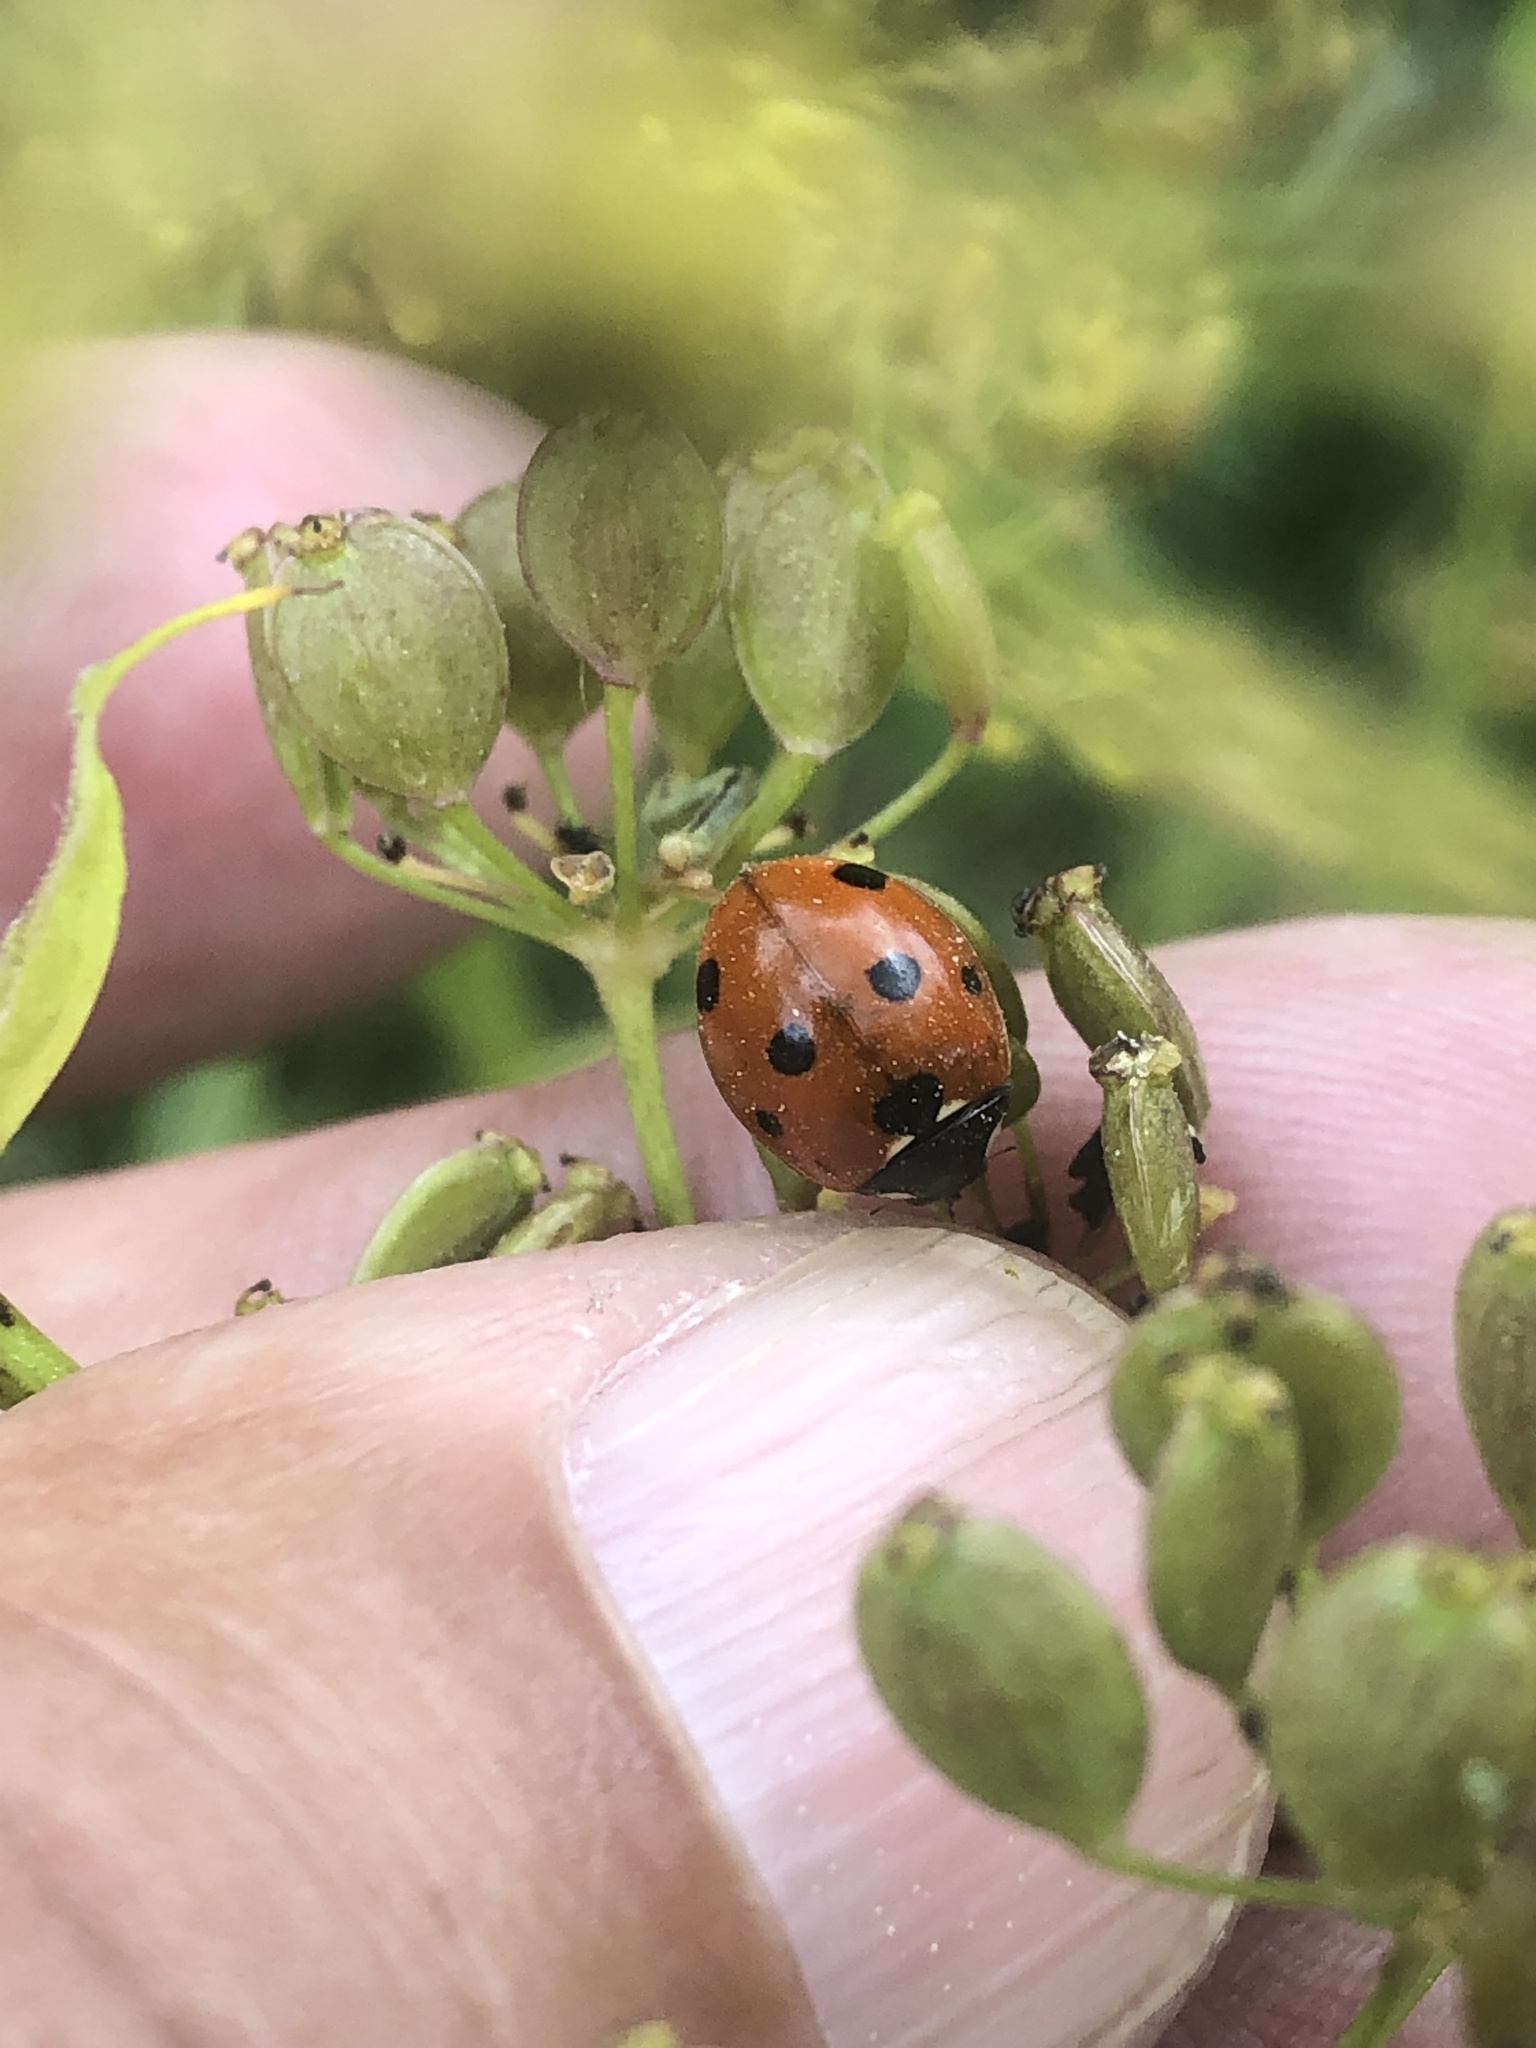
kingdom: Animalia
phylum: Arthropoda
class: Insecta
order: Coleoptera
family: Coccinellidae
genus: Coccinella
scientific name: Coccinella septempunctata
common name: Sevenspotted lady beetle
